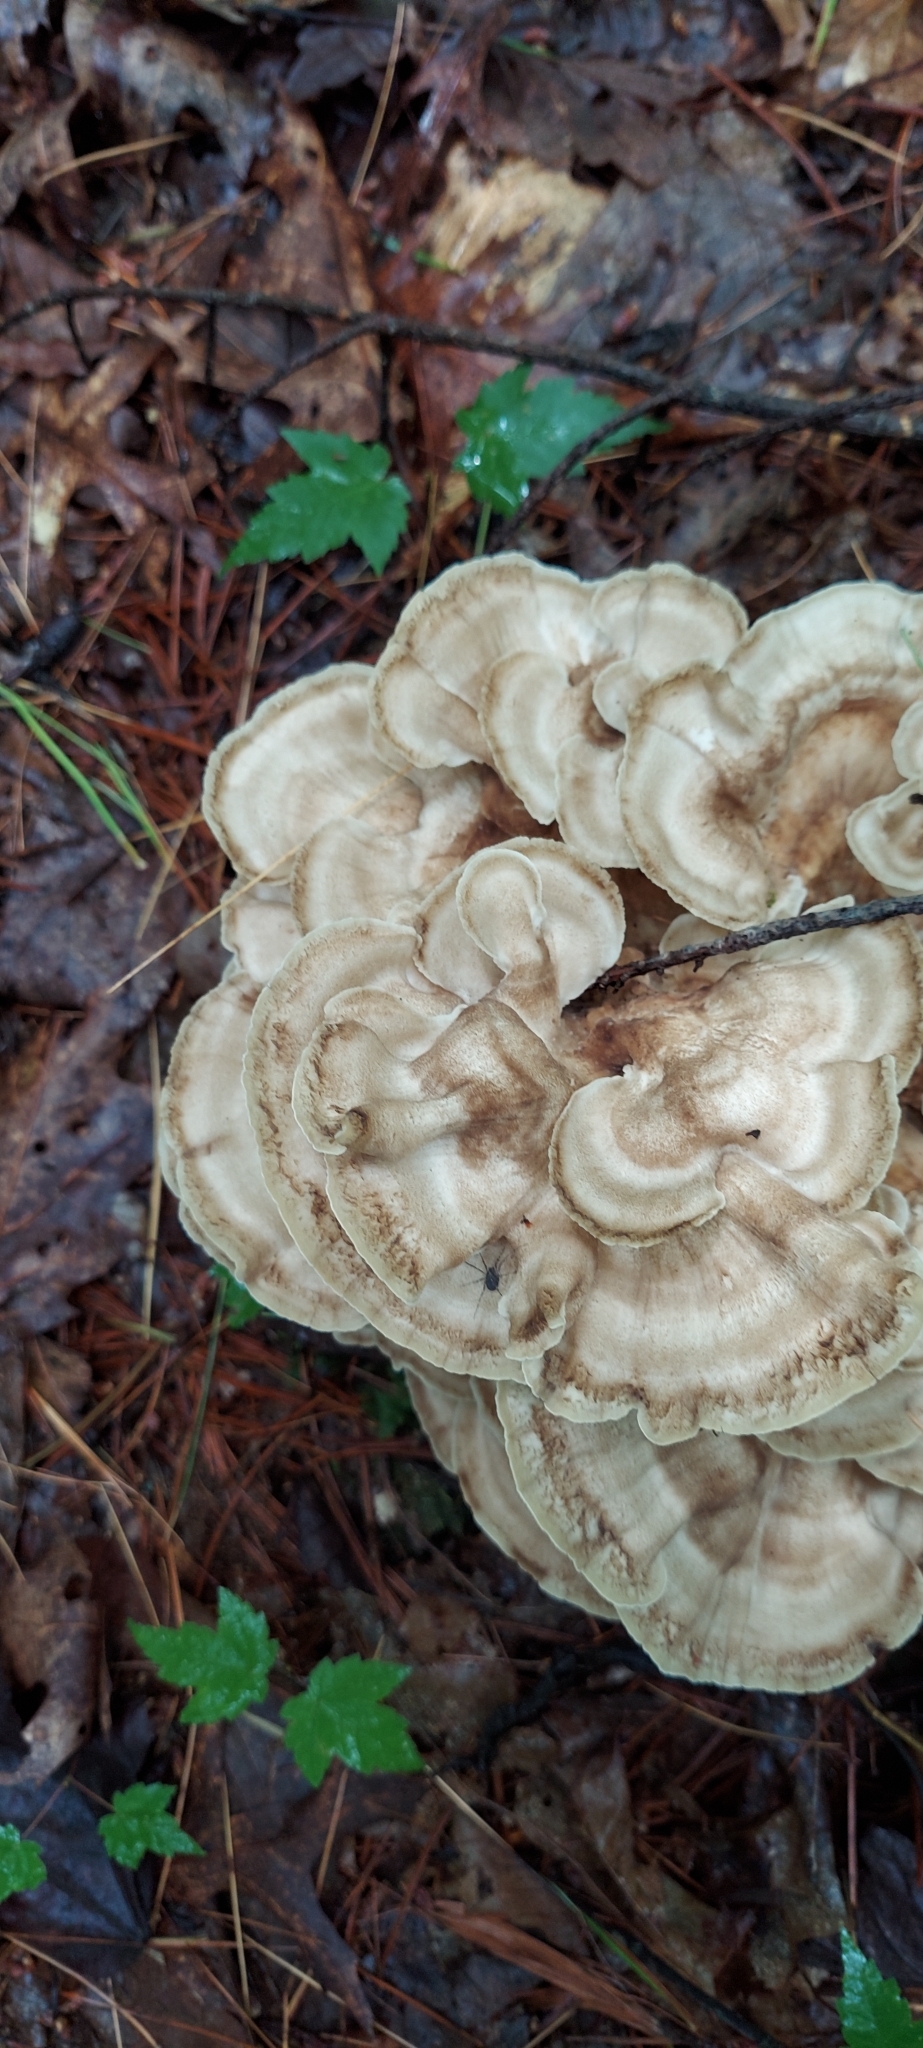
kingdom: Fungi
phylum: Basidiomycota
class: Agaricomycetes
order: Polyporales
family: Meripilaceae
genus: Meripilus
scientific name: Meripilus sumstinei
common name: Black-staining polypore
